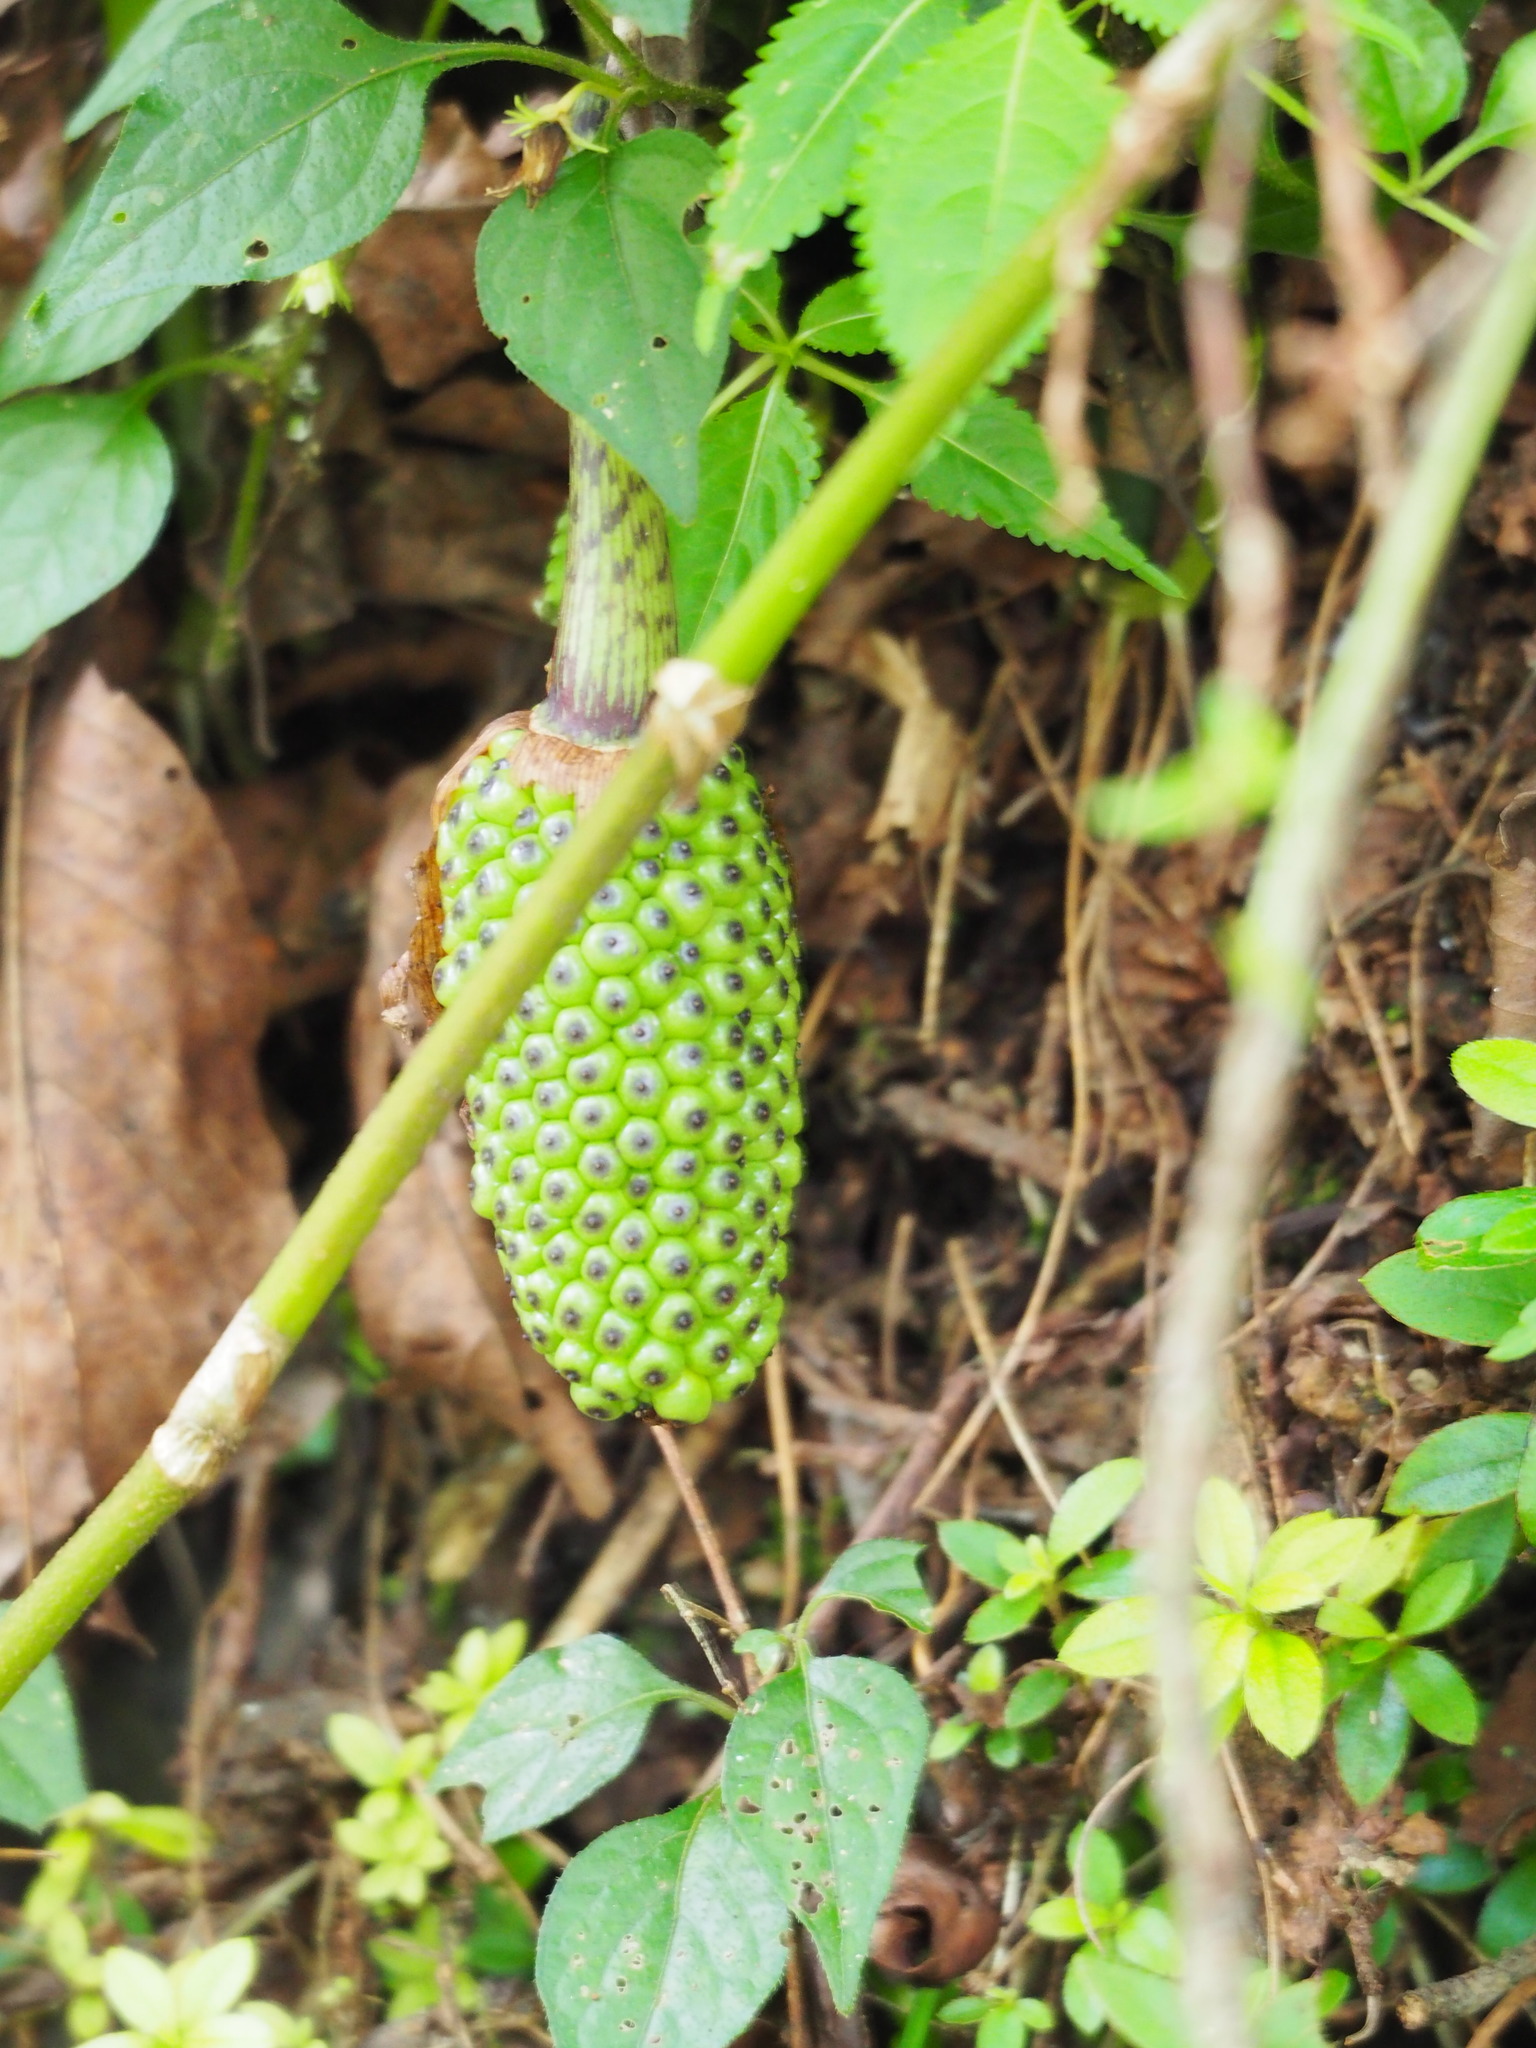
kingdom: Plantae
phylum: Tracheophyta
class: Liliopsida
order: Alismatales
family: Araceae
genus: Arisaema
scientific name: Arisaema taiwanense
